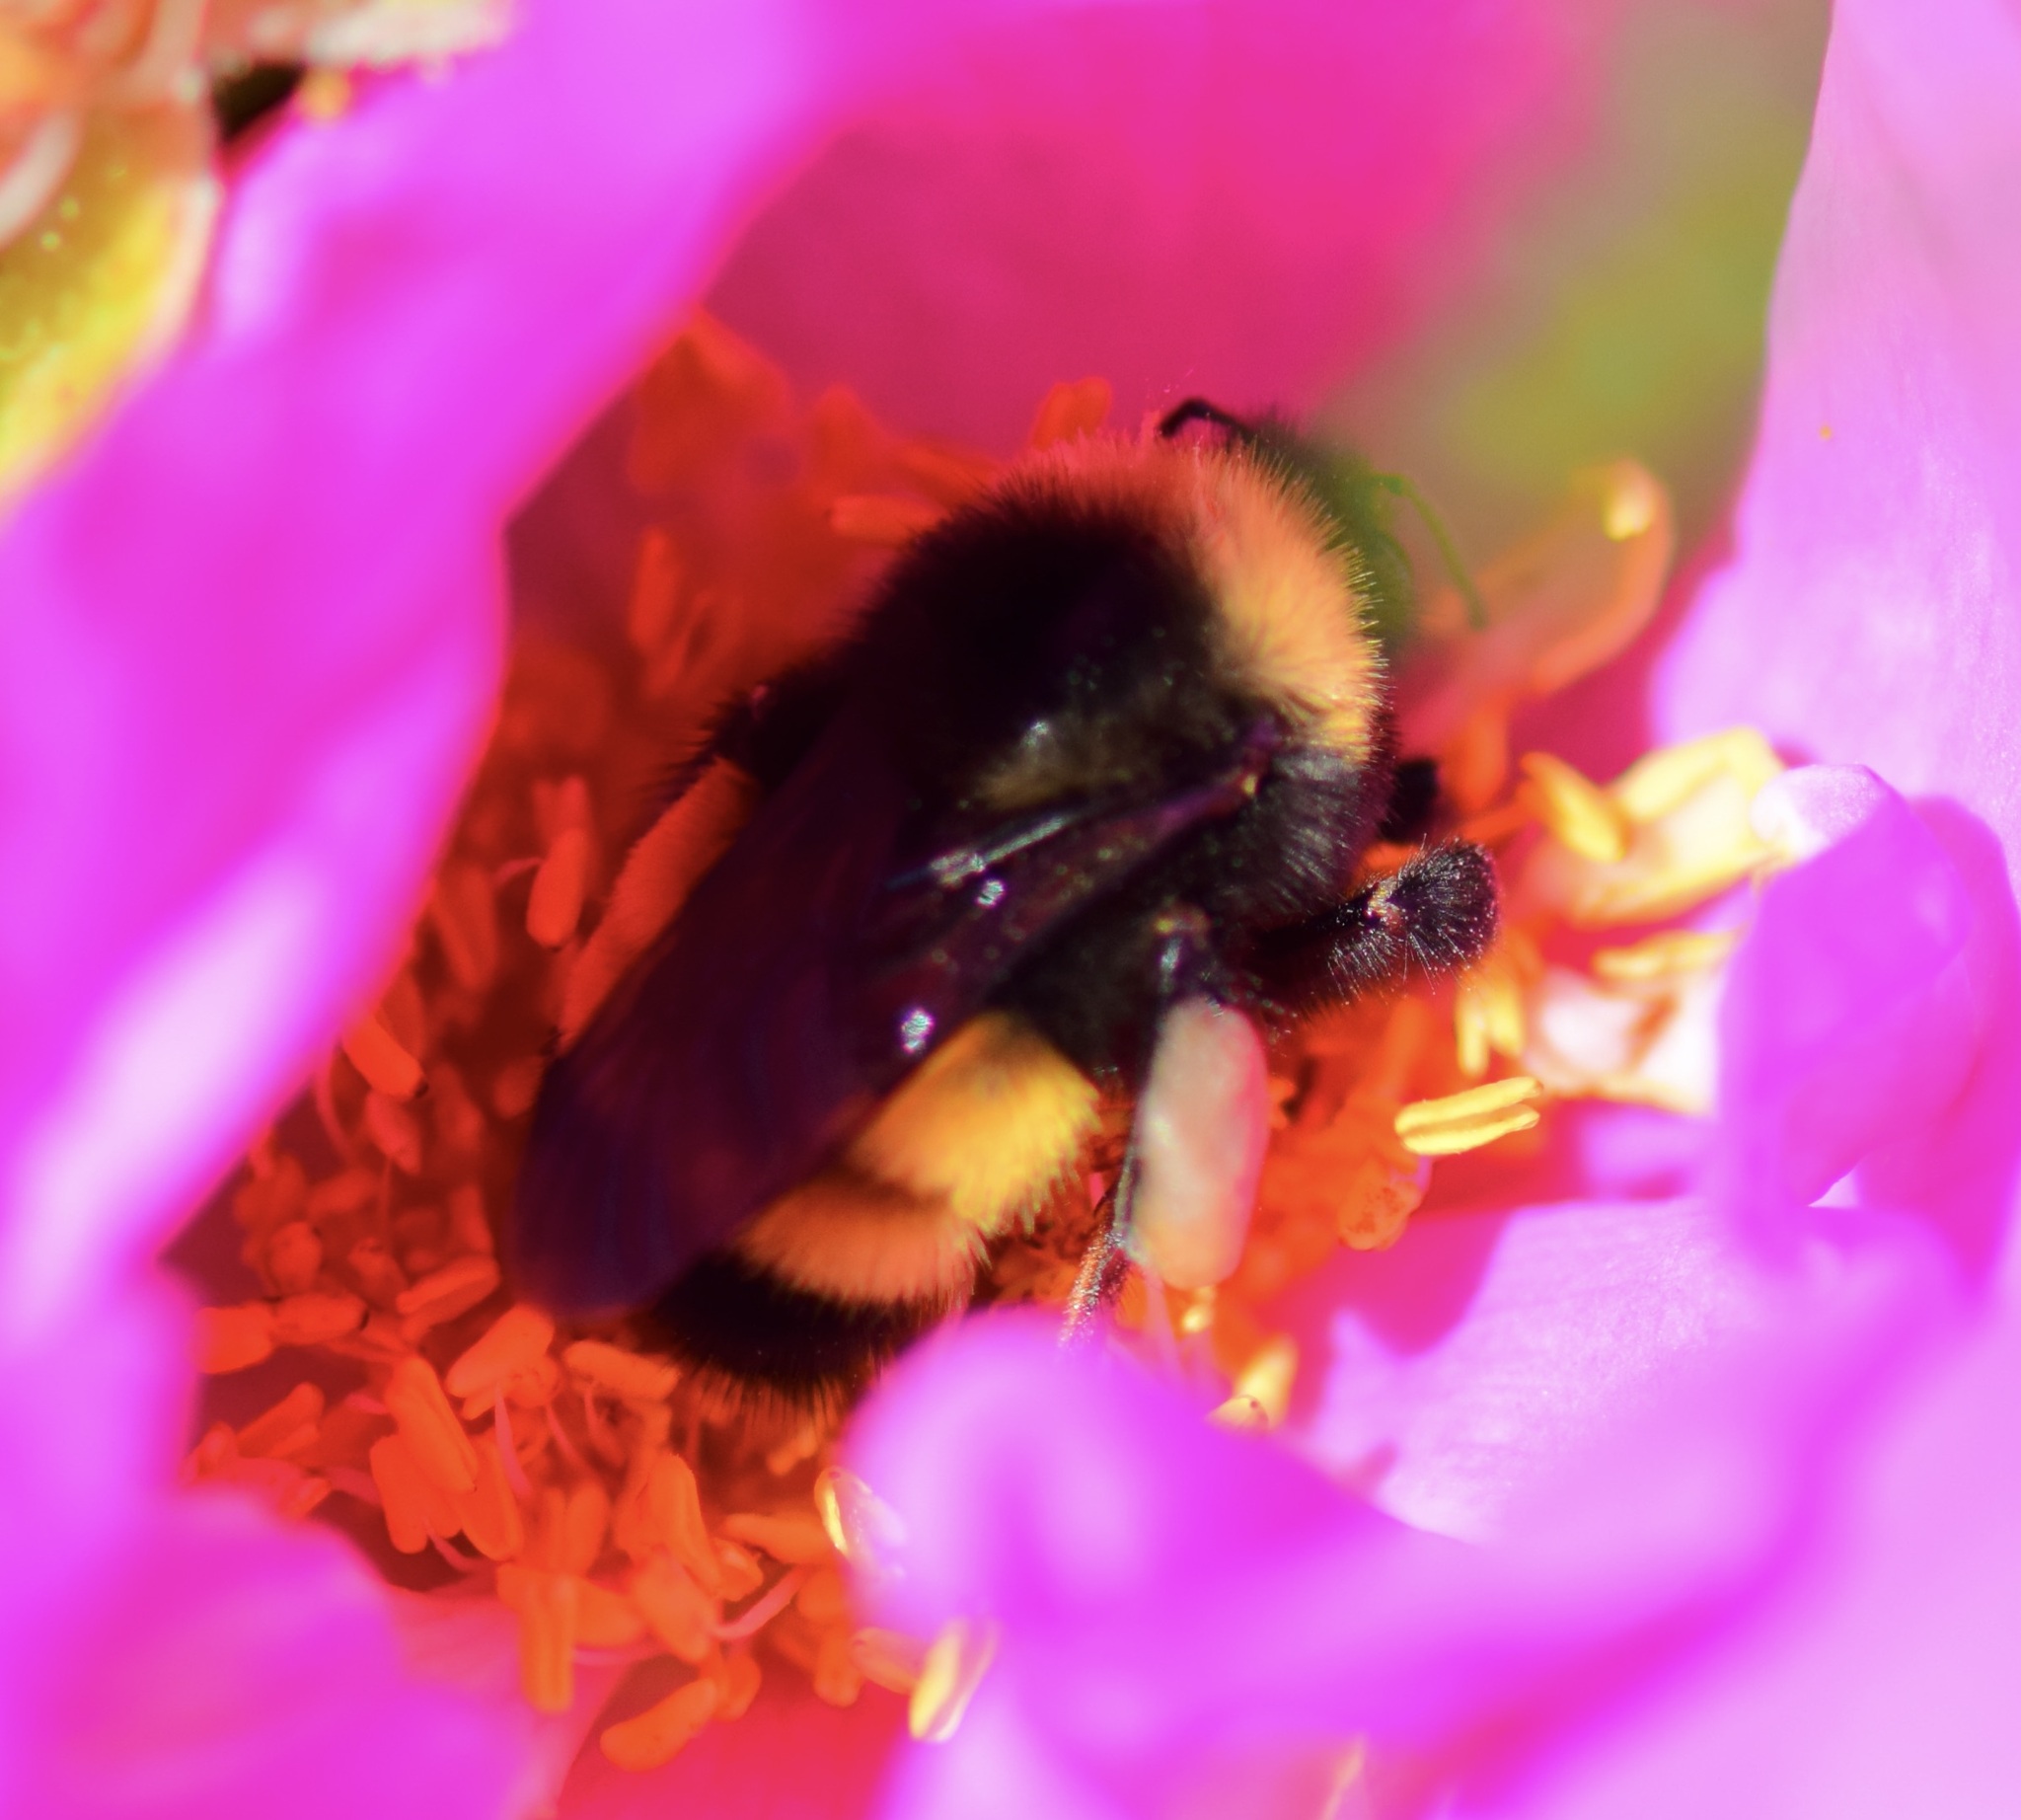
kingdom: Animalia
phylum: Arthropoda
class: Insecta
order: Hymenoptera
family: Apidae
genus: Bombus
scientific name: Bombus terricola
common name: Yellow-banded bumble bee
